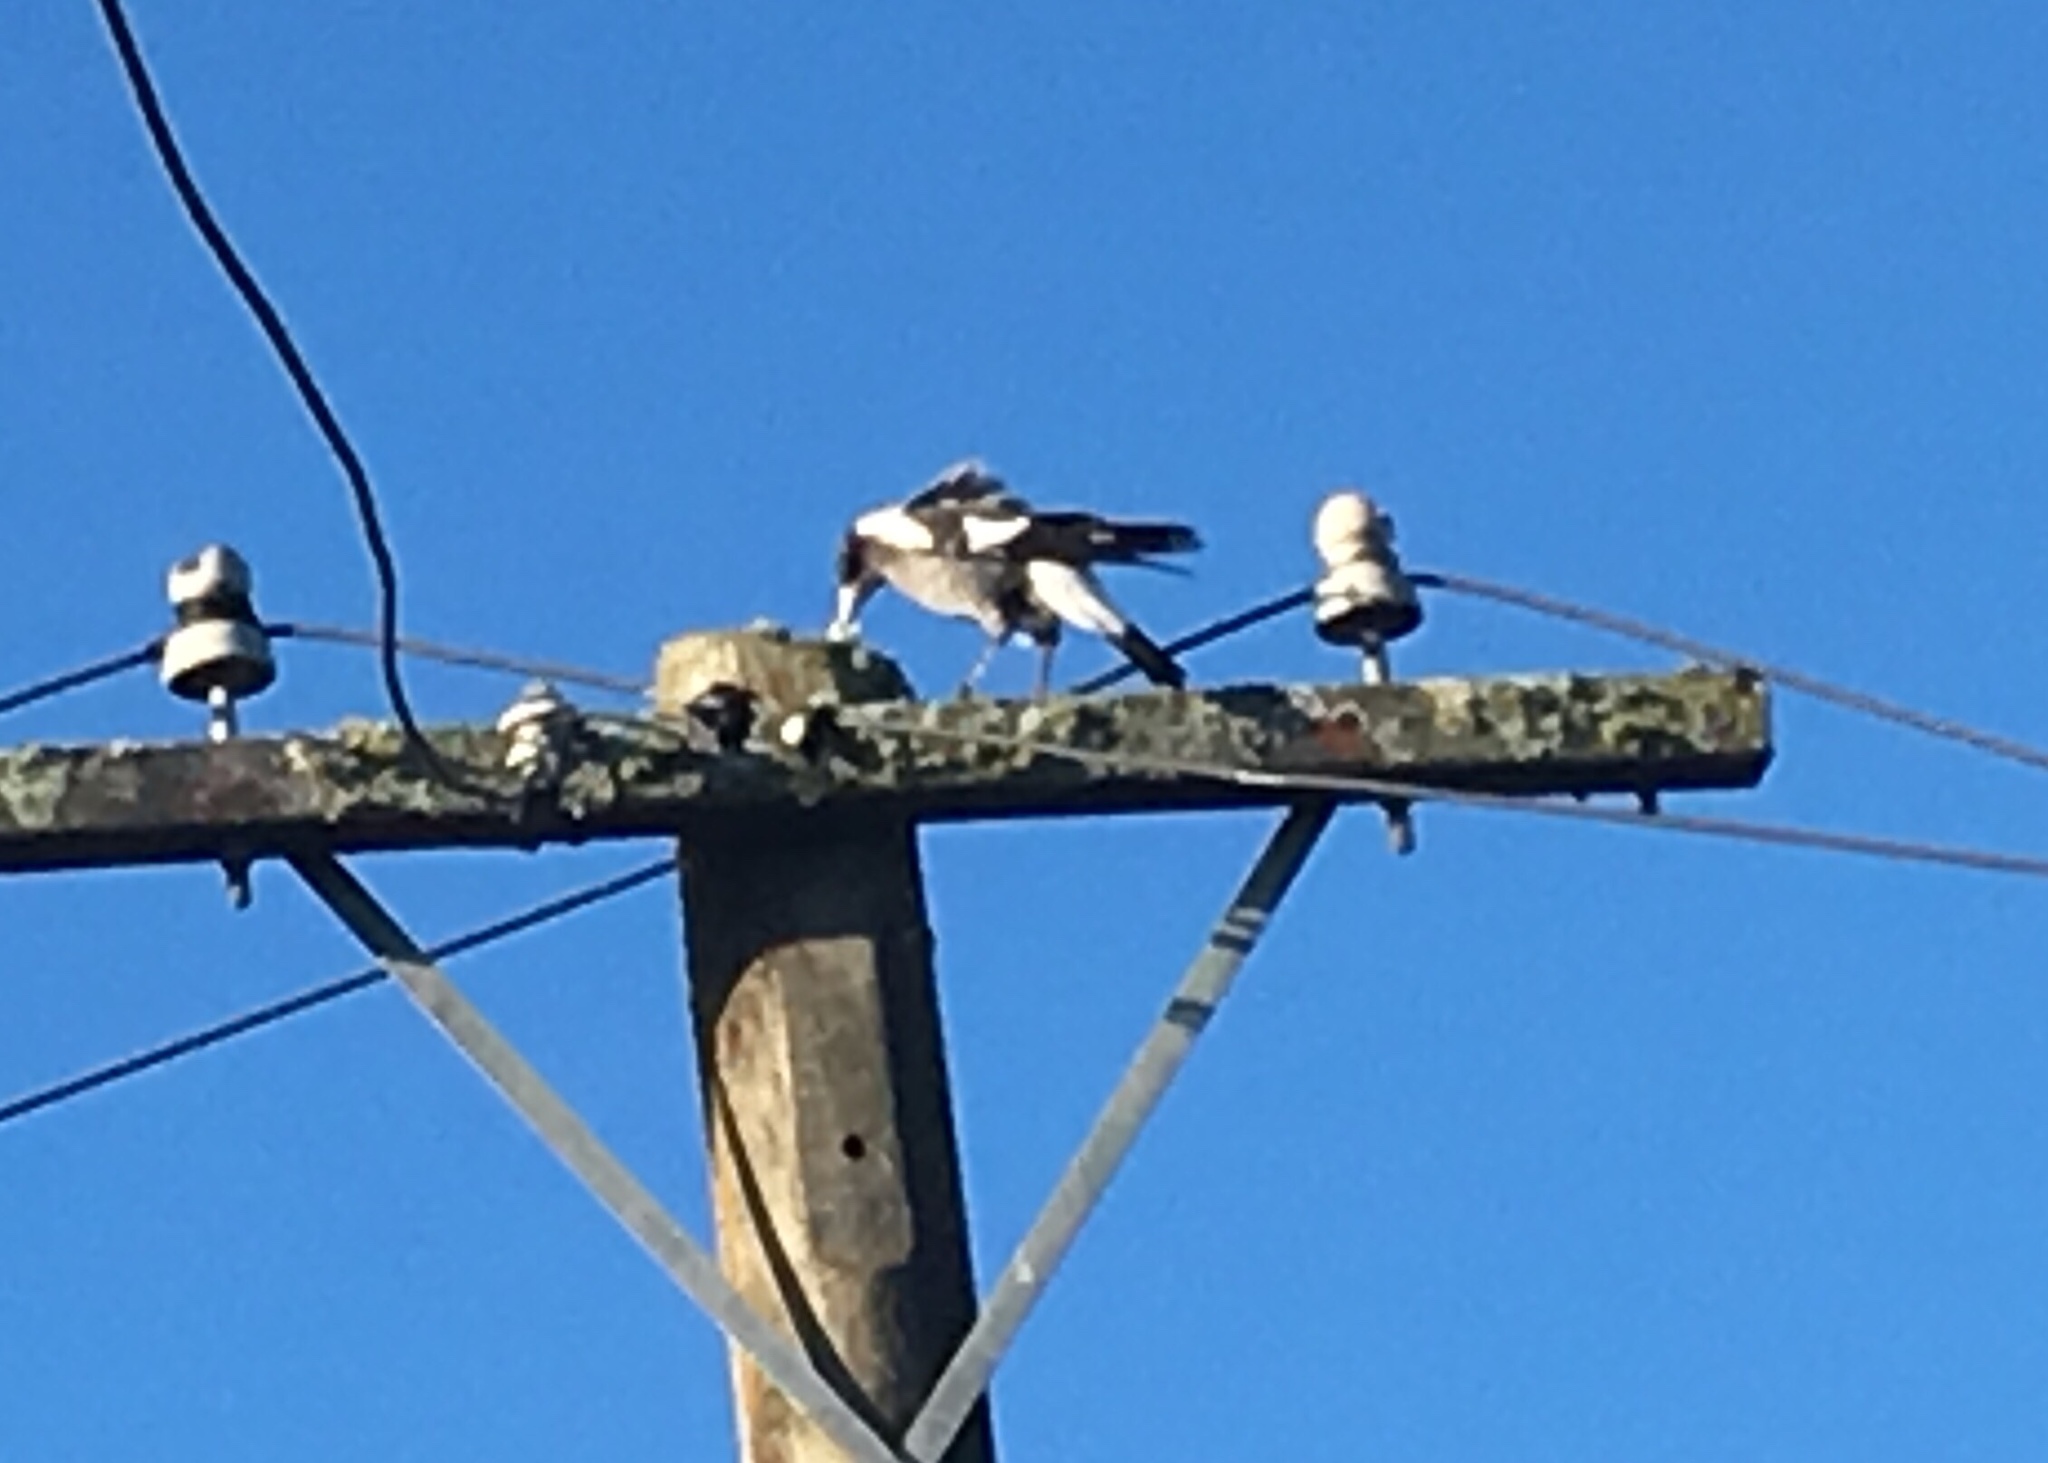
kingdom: Animalia
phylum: Chordata
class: Aves
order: Passeriformes
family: Cracticidae
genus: Gymnorhina
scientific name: Gymnorhina tibicen
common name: Australian magpie
